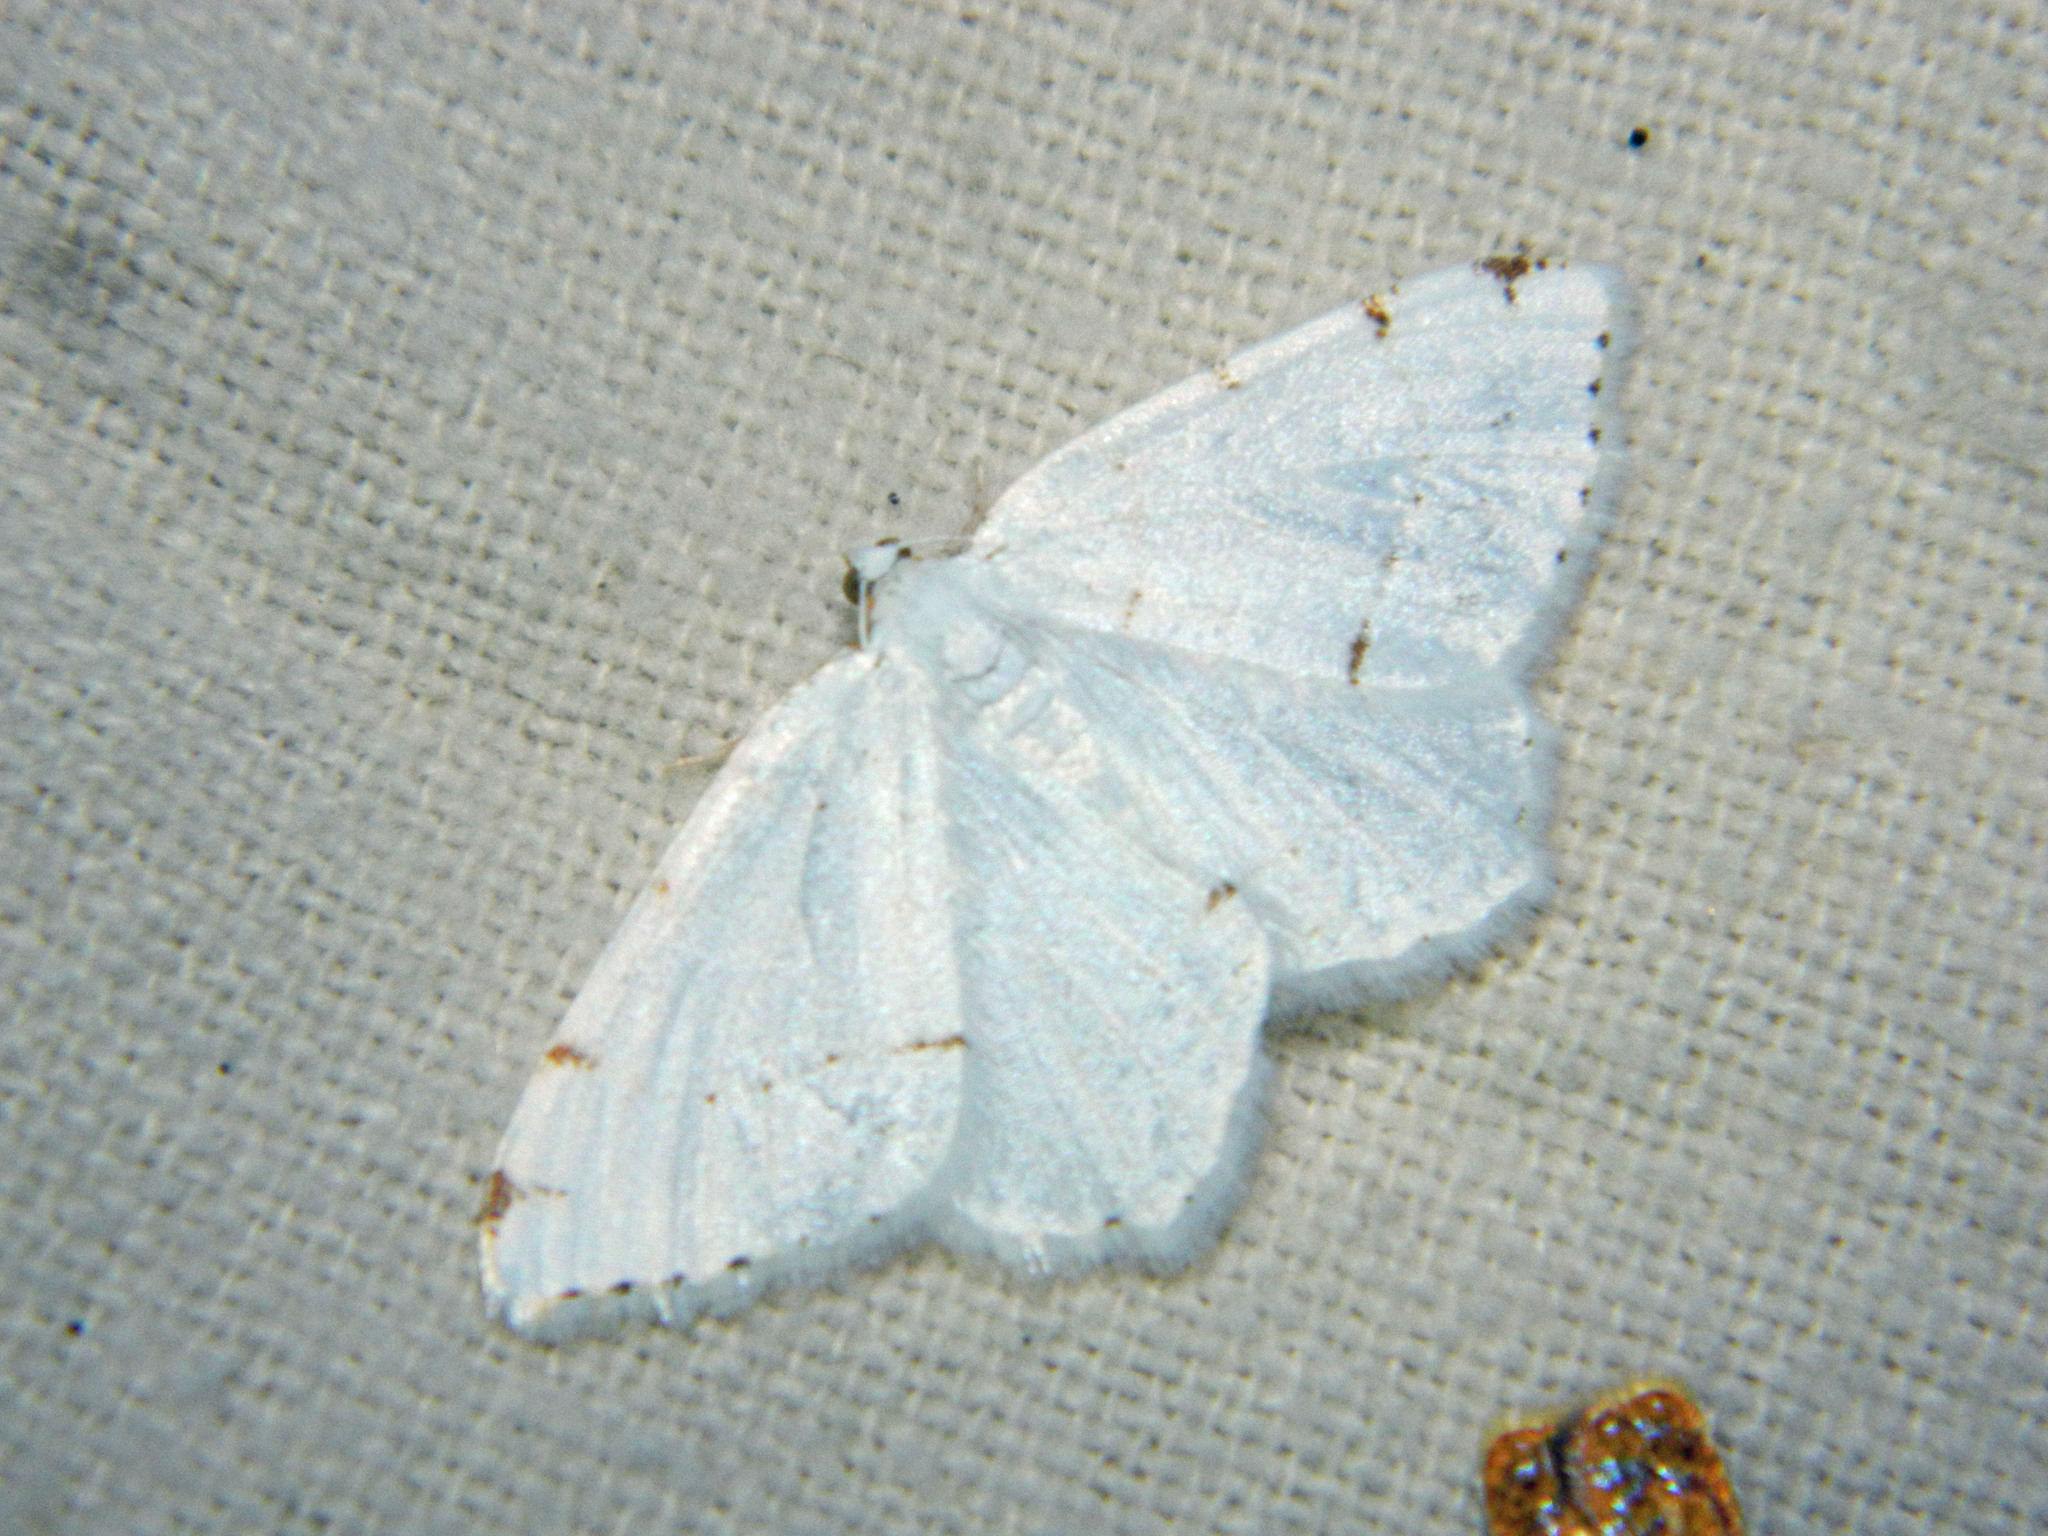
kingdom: Animalia
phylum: Arthropoda
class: Insecta
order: Lepidoptera
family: Geometridae
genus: Macaria
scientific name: Macaria pustularia
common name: Lesser maple spanworm moth
